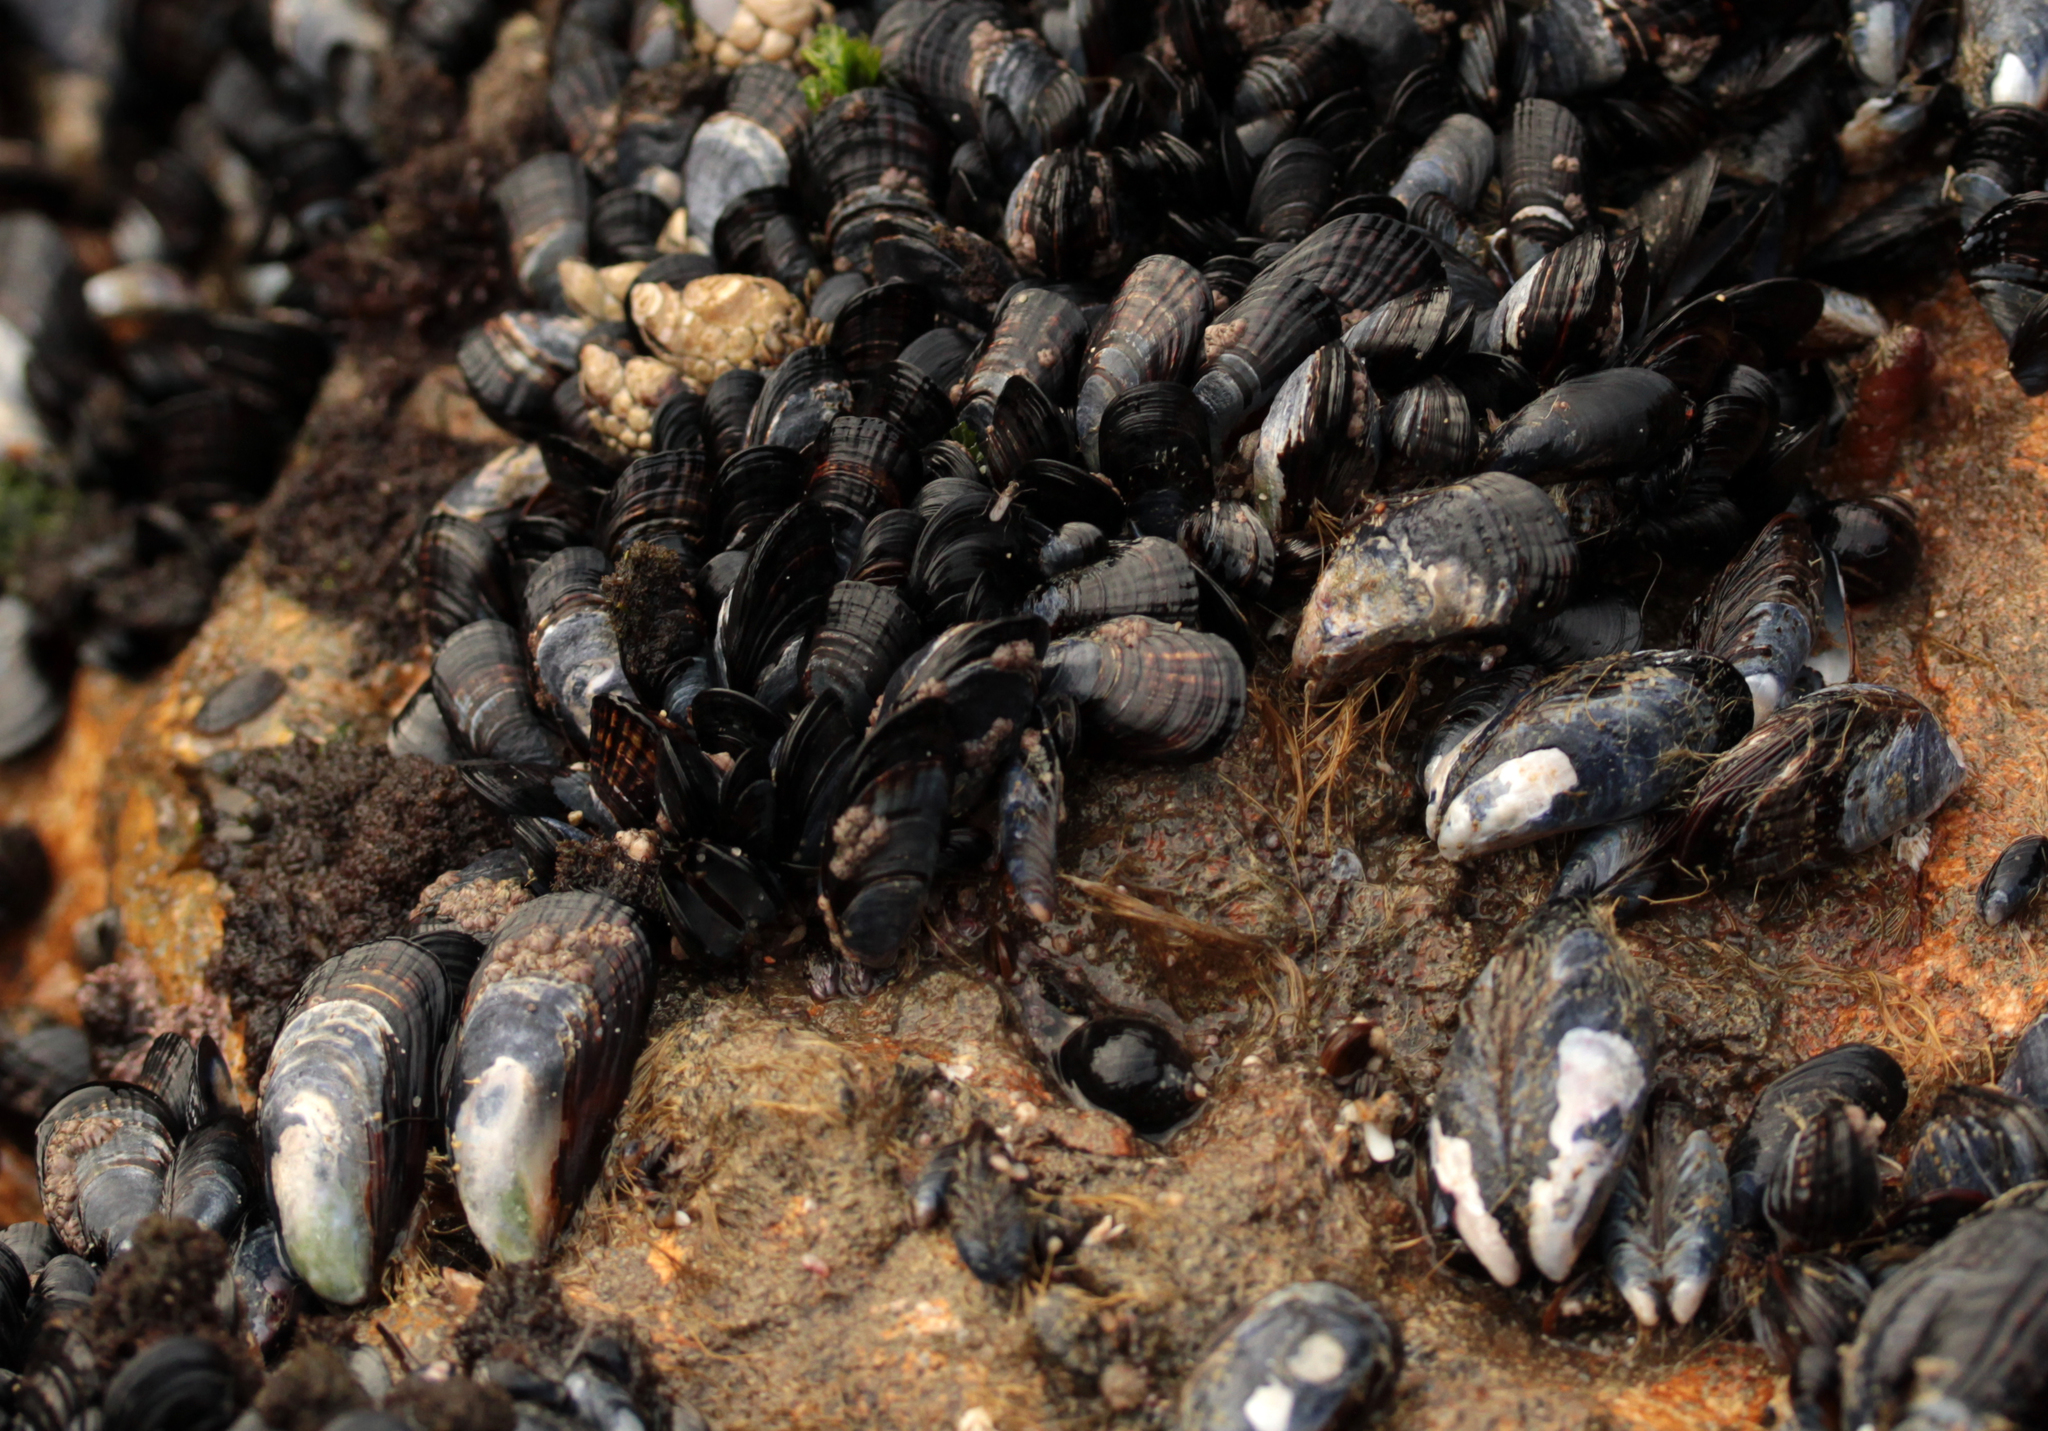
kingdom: Animalia
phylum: Mollusca
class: Bivalvia
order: Mytilida
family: Mytilidae
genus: Mytilus
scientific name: Mytilus californianus
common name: California mussel
